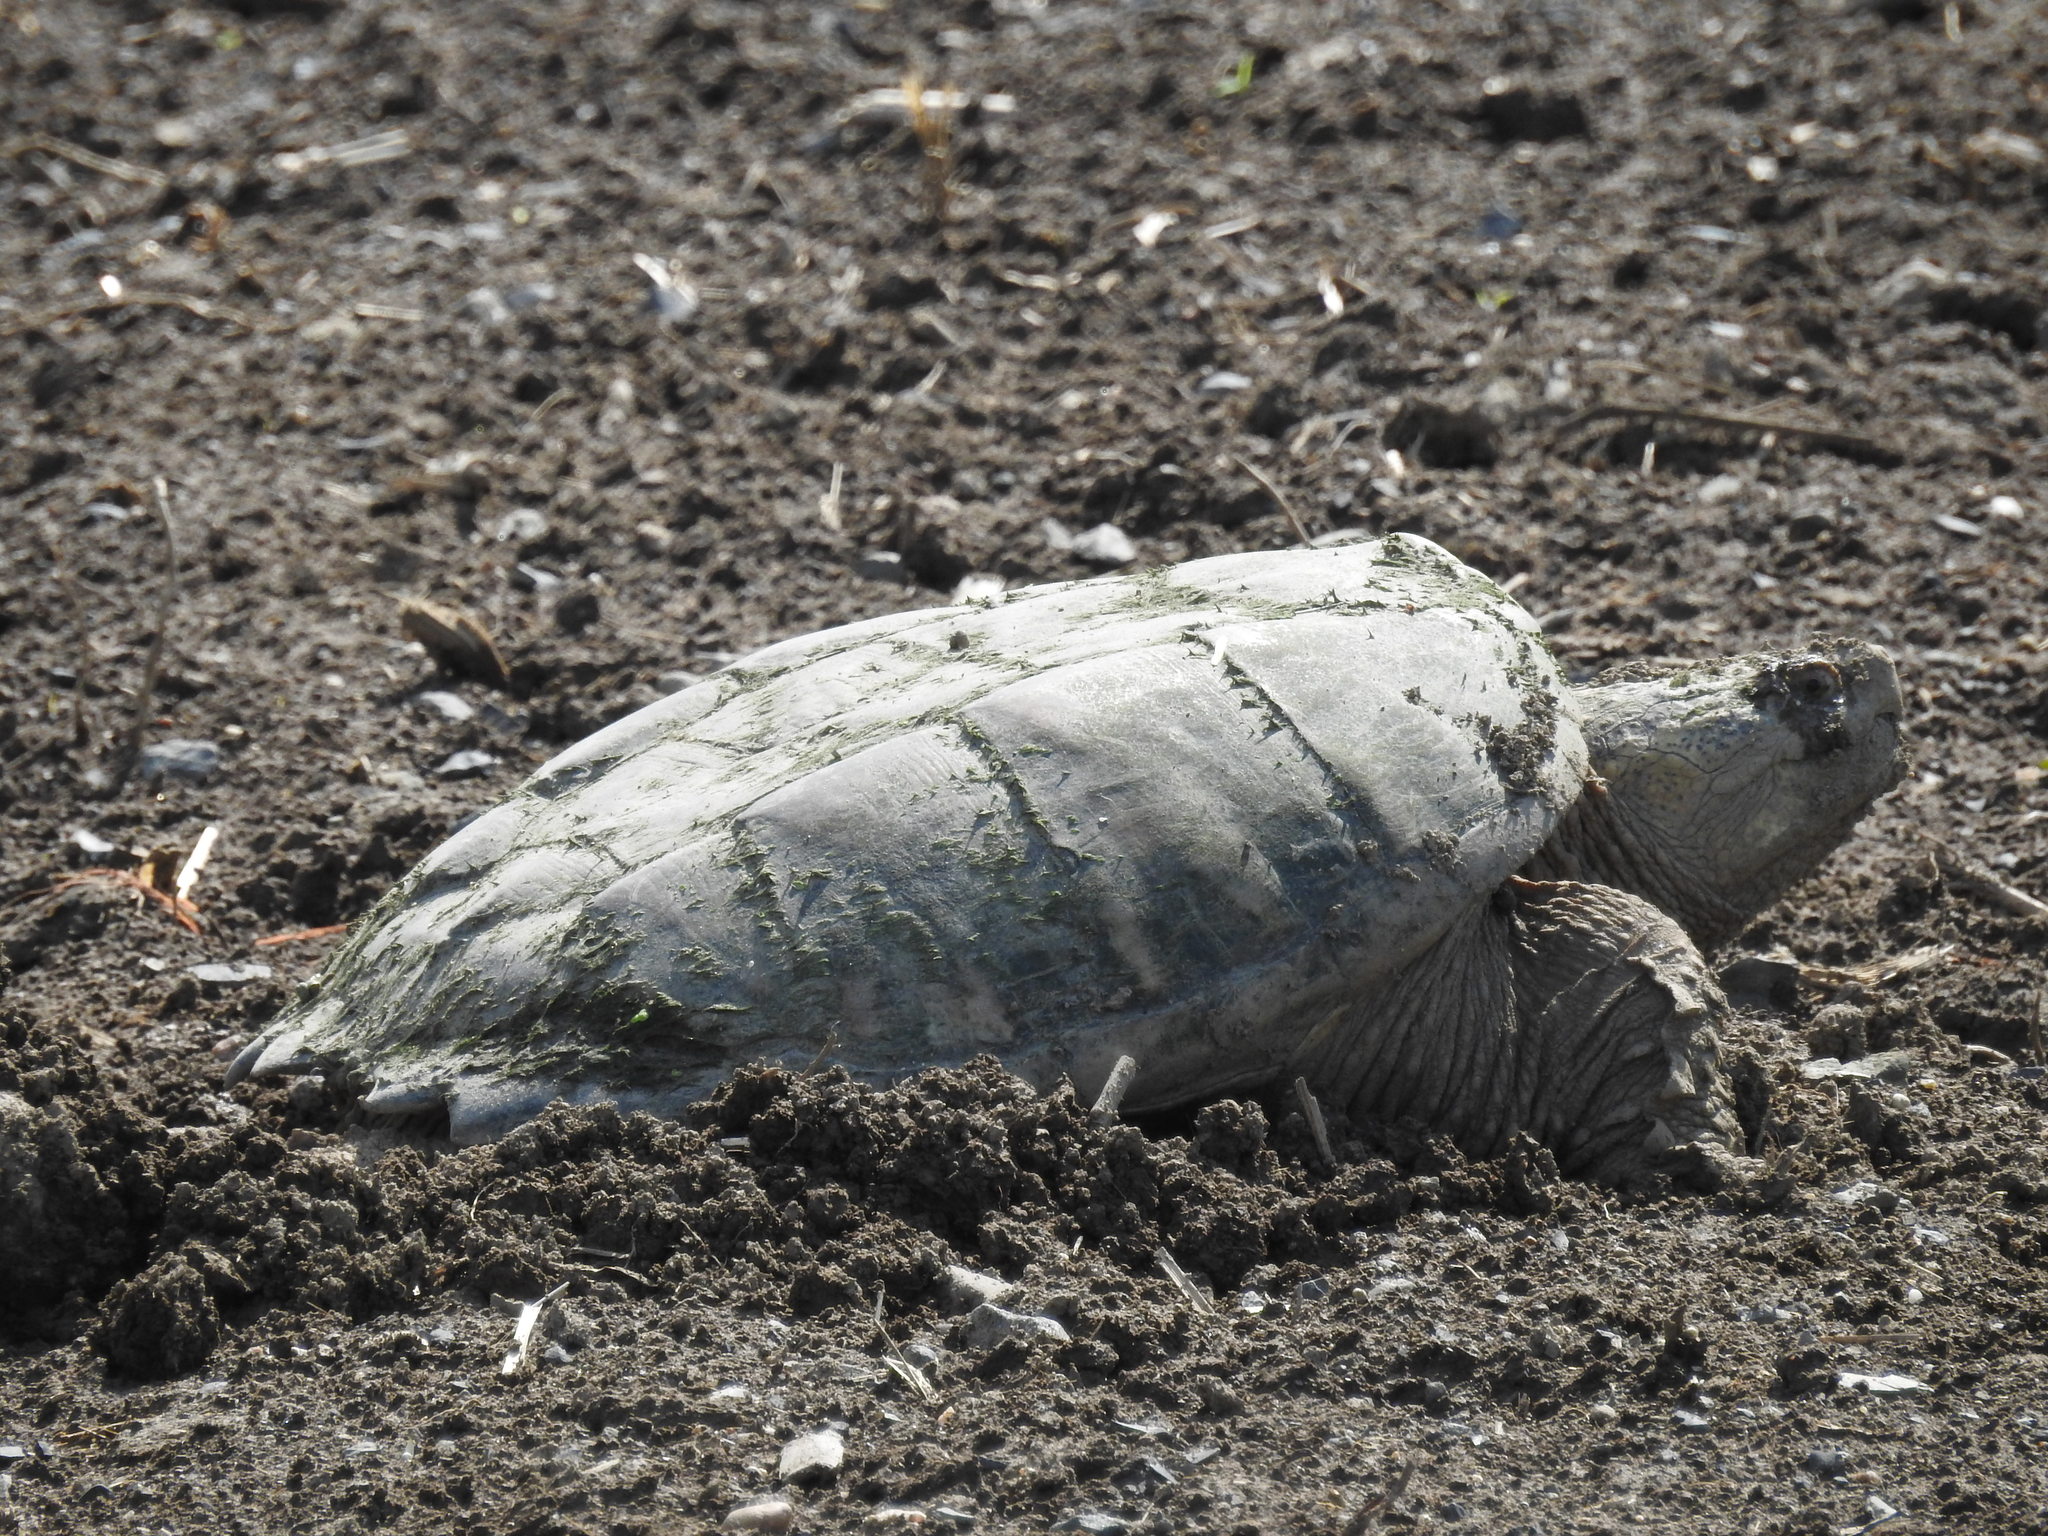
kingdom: Animalia
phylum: Chordata
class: Testudines
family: Chelydridae
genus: Chelydra
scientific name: Chelydra serpentina
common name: Common snapping turtle
